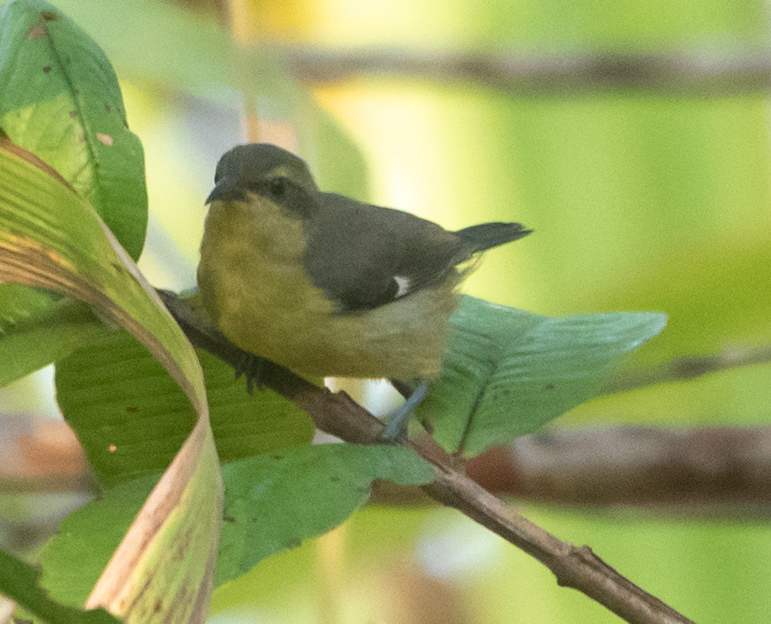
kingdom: Animalia
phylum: Chordata
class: Aves
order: Passeriformes
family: Thraupidae
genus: Coereba
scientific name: Coereba flaveola
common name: Bananaquit
